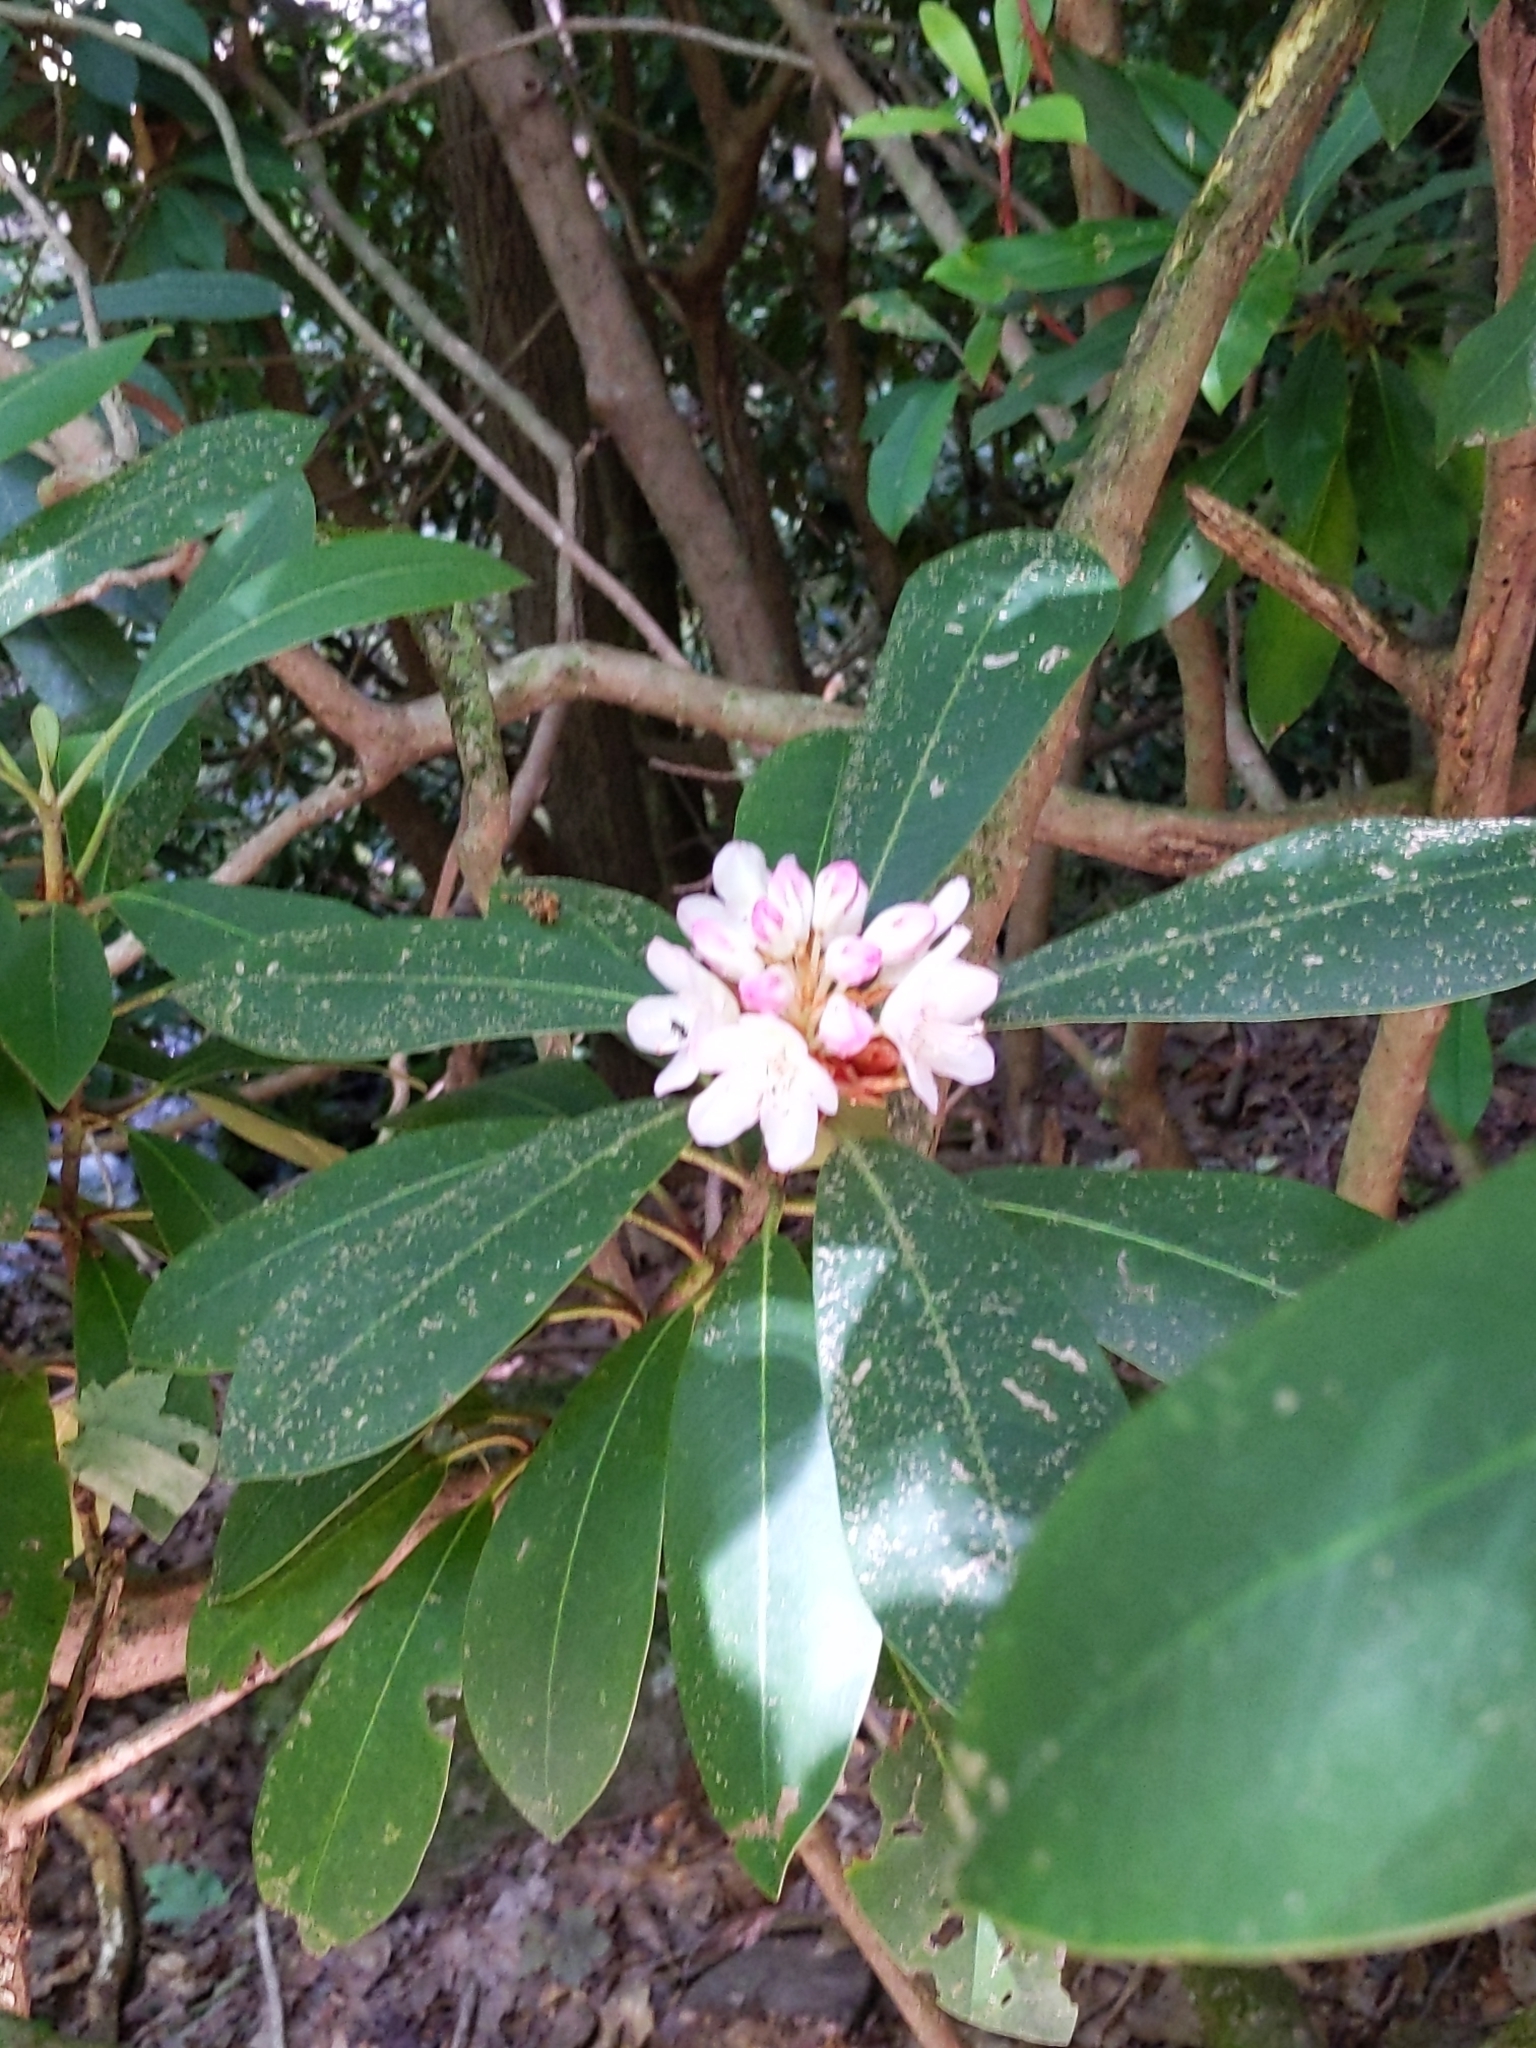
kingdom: Plantae
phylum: Tracheophyta
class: Magnoliopsida
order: Ericales
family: Ericaceae
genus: Rhododendron
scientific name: Rhododendron maximum
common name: Great rhododendron
